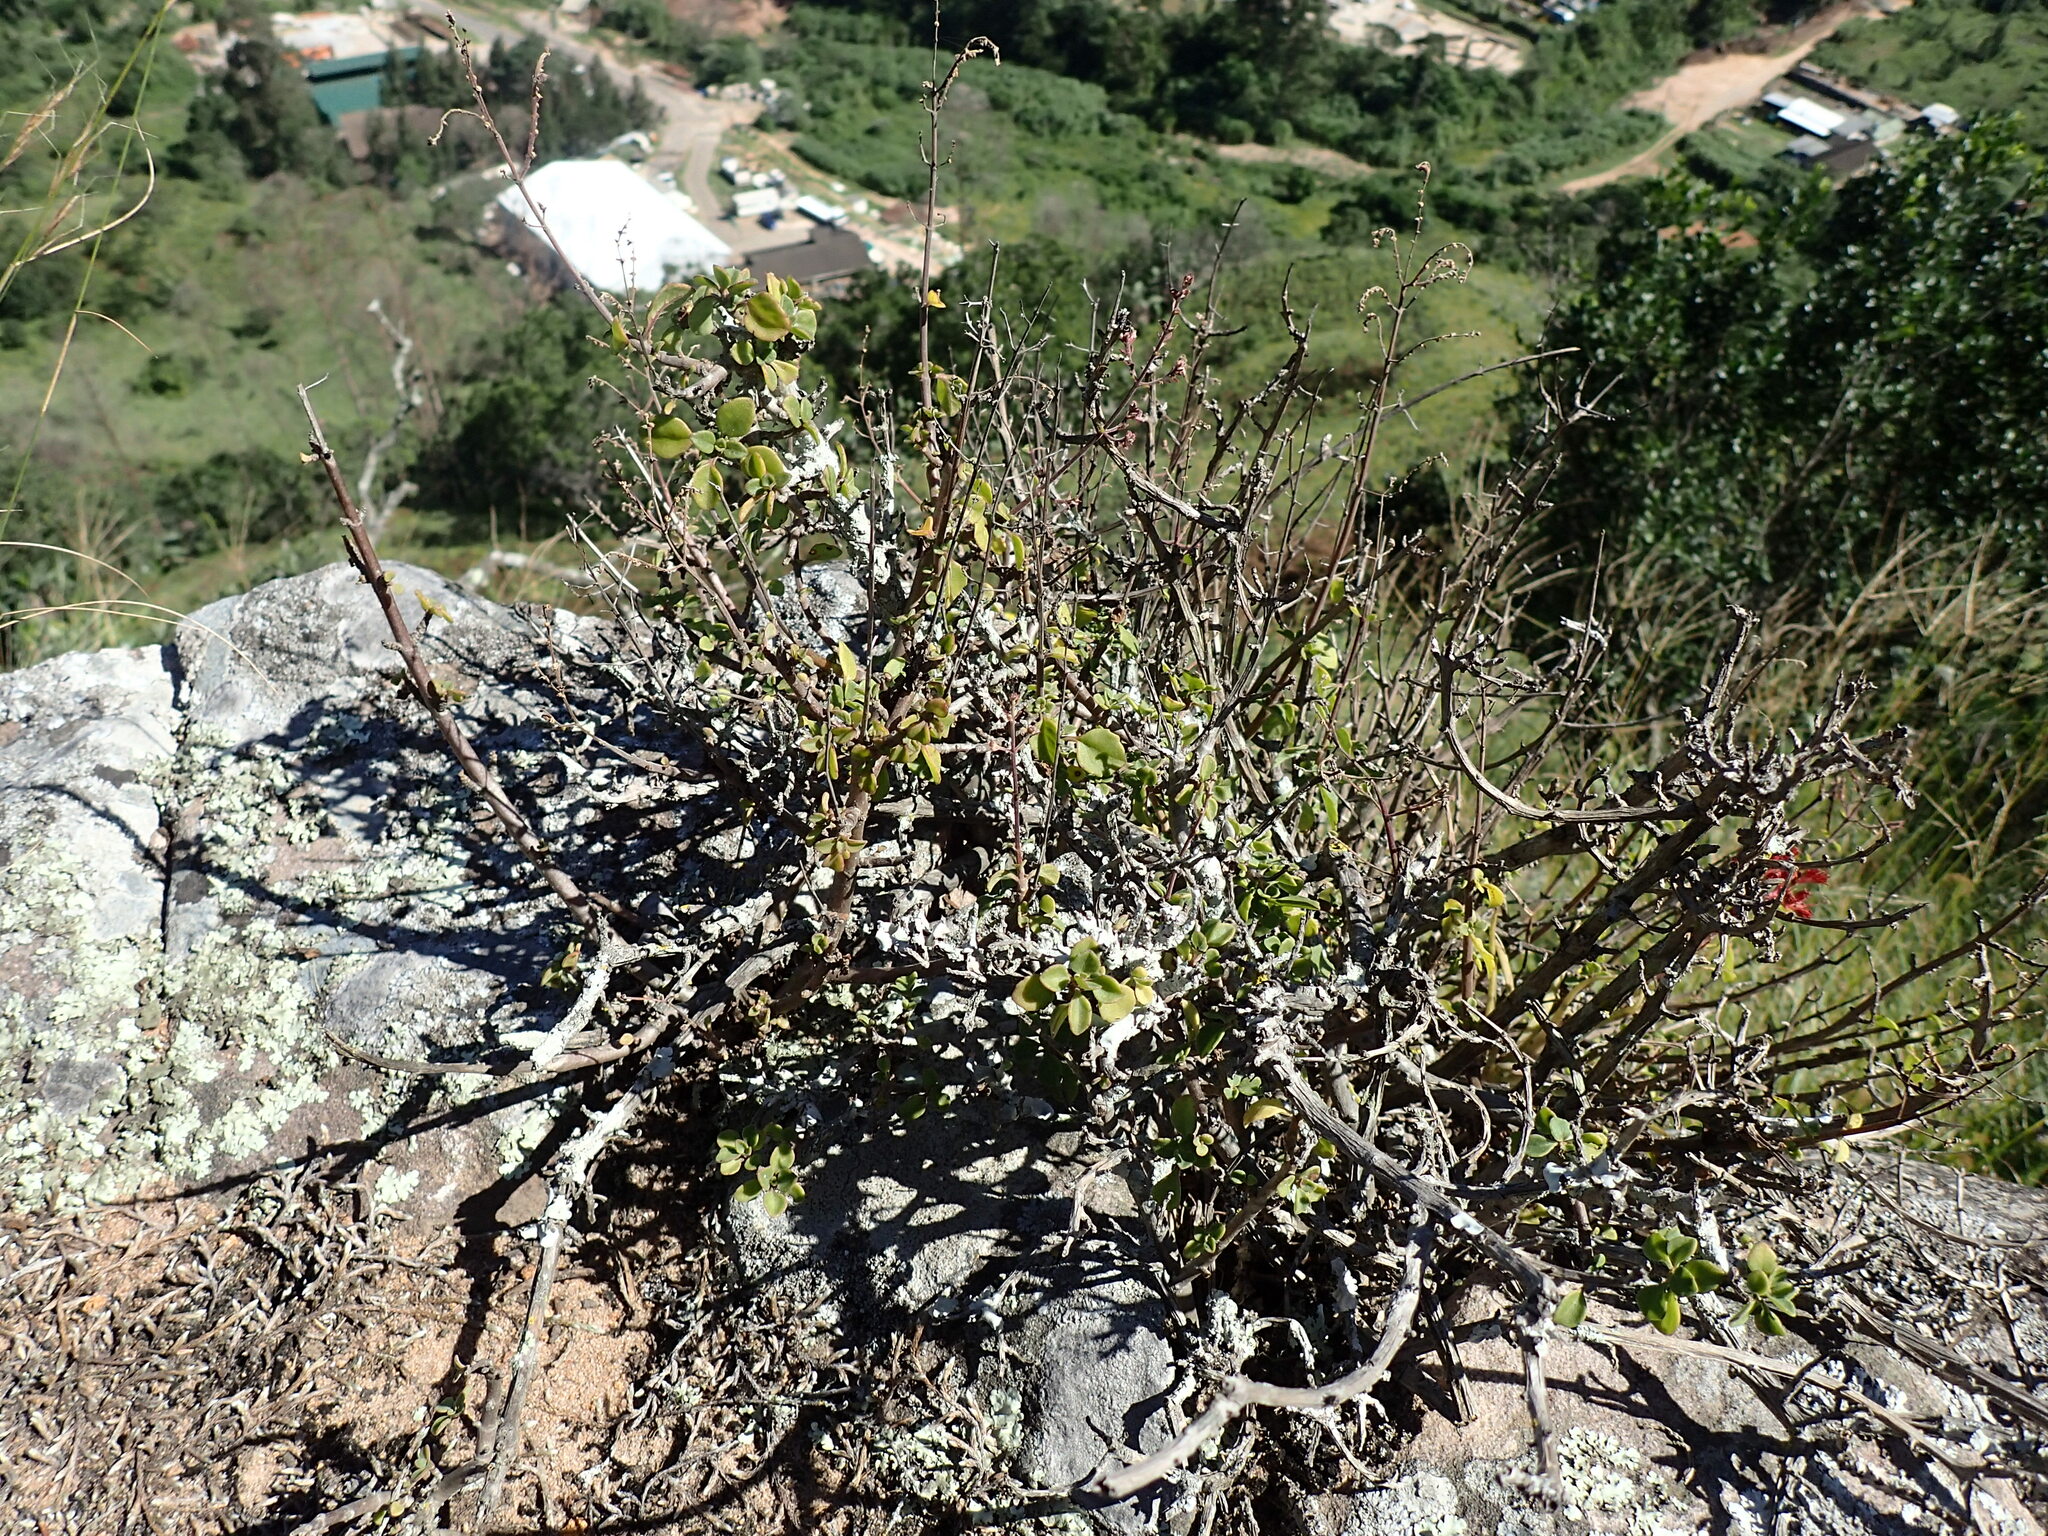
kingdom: Plantae
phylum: Tracheophyta
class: Magnoliopsida
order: Lamiales
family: Lamiaceae
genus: Aeollanthus
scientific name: Aeollanthus parvifolius
